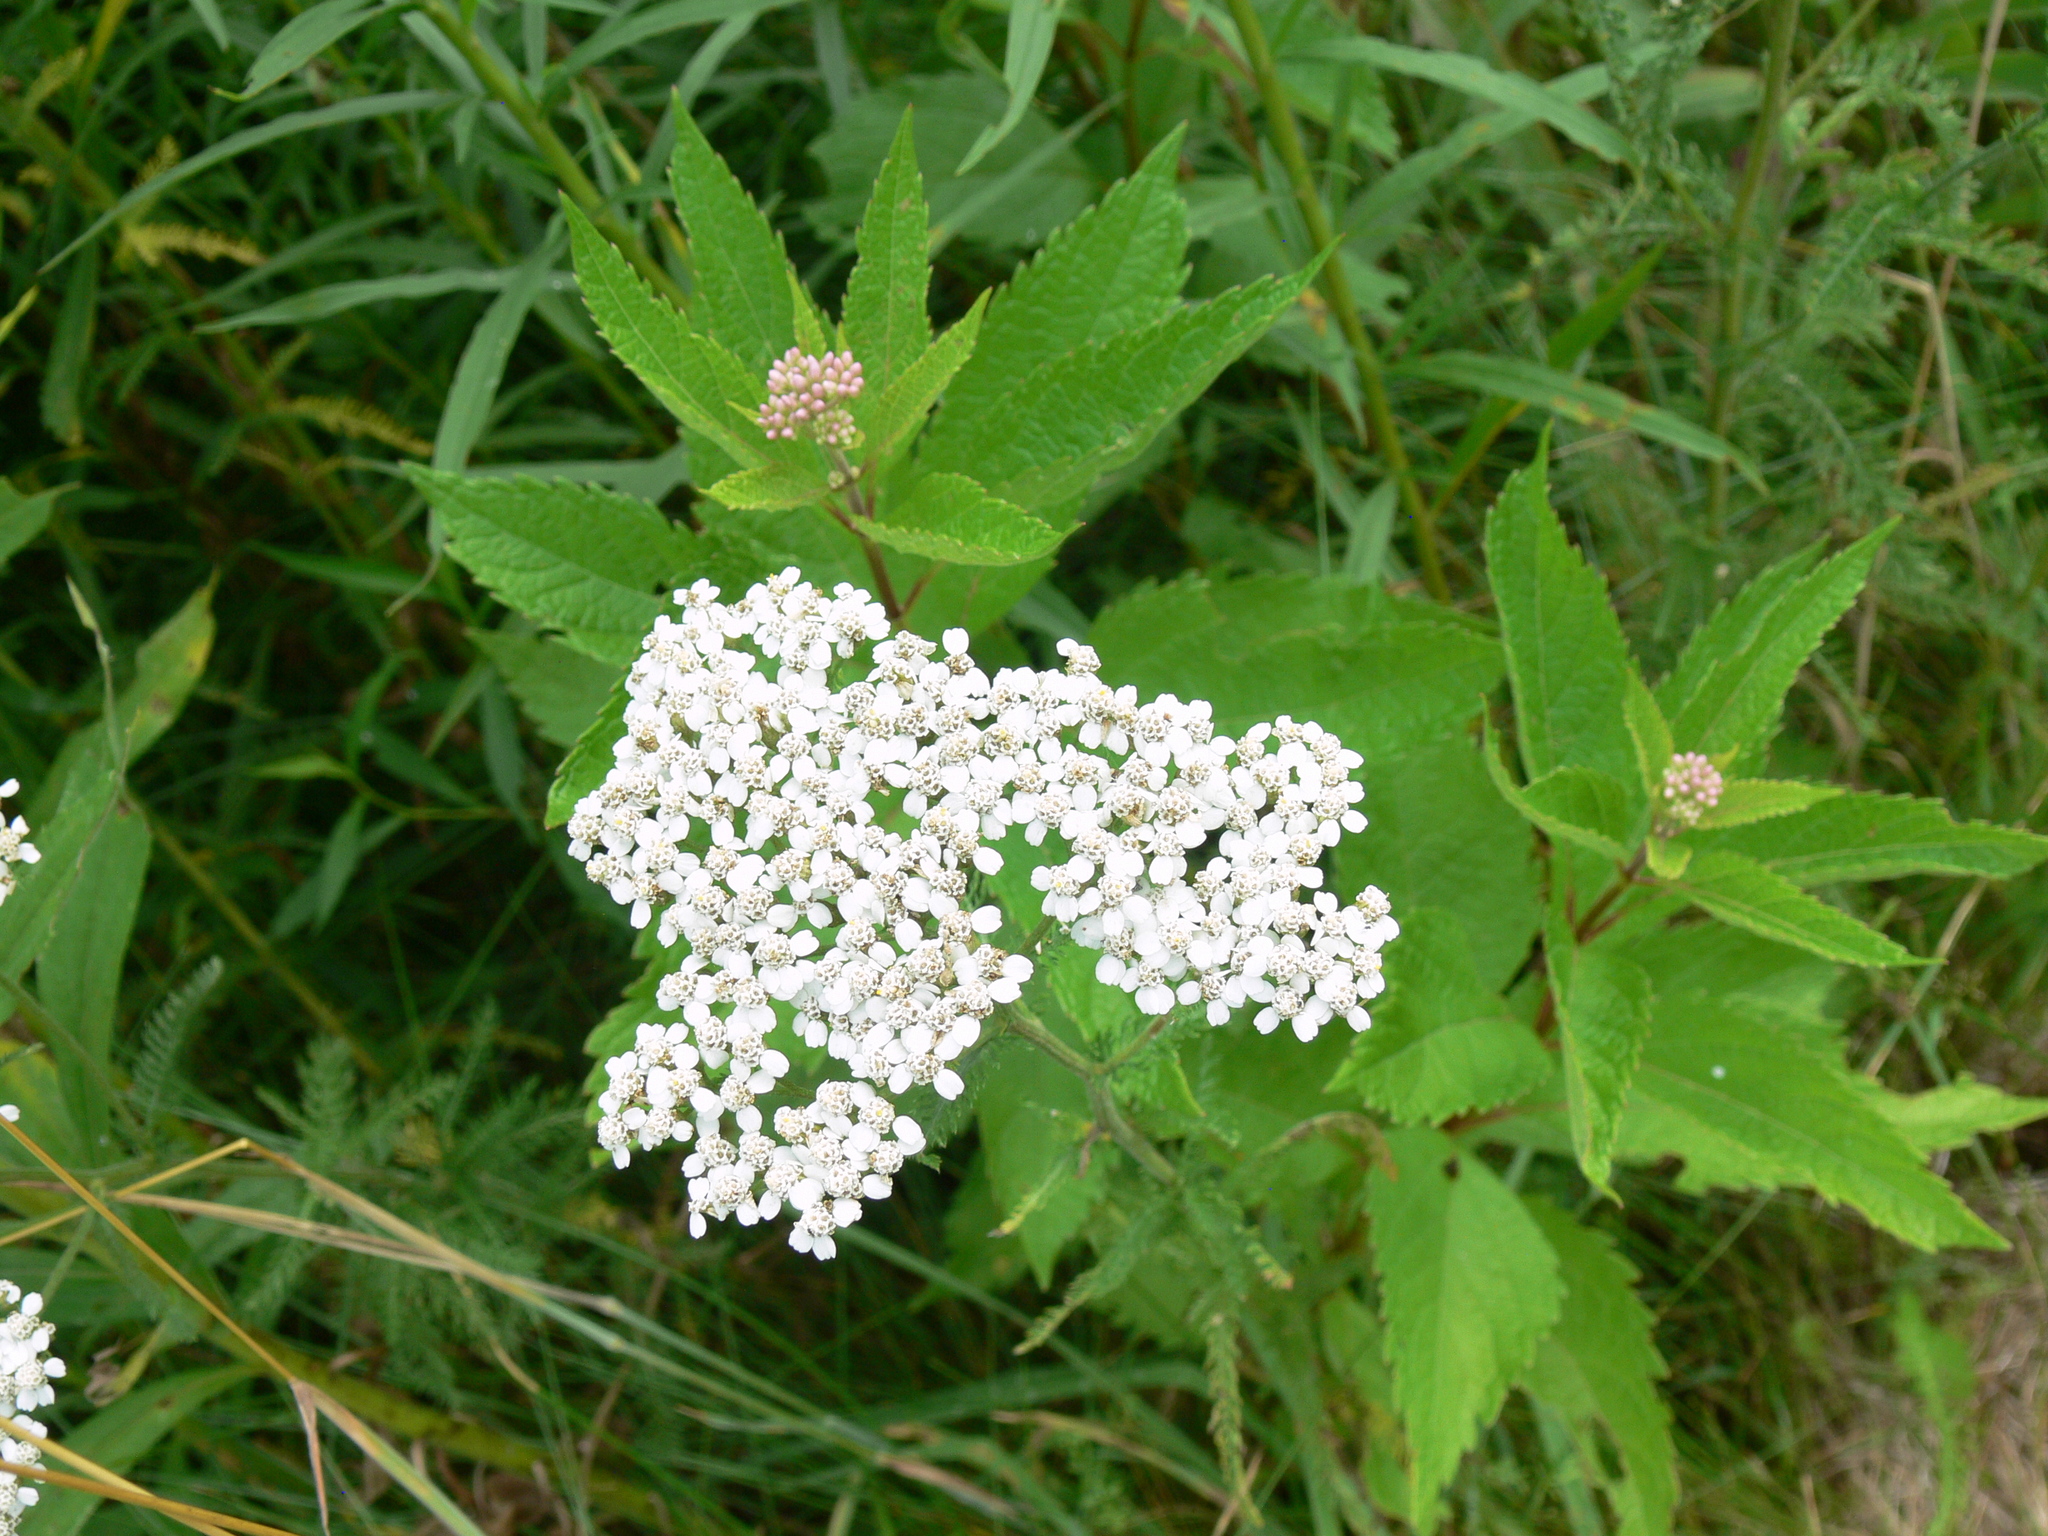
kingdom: Plantae
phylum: Tracheophyta
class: Magnoliopsida
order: Asterales
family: Asteraceae
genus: Achillea
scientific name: Achillea millefolium
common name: Yarrow
